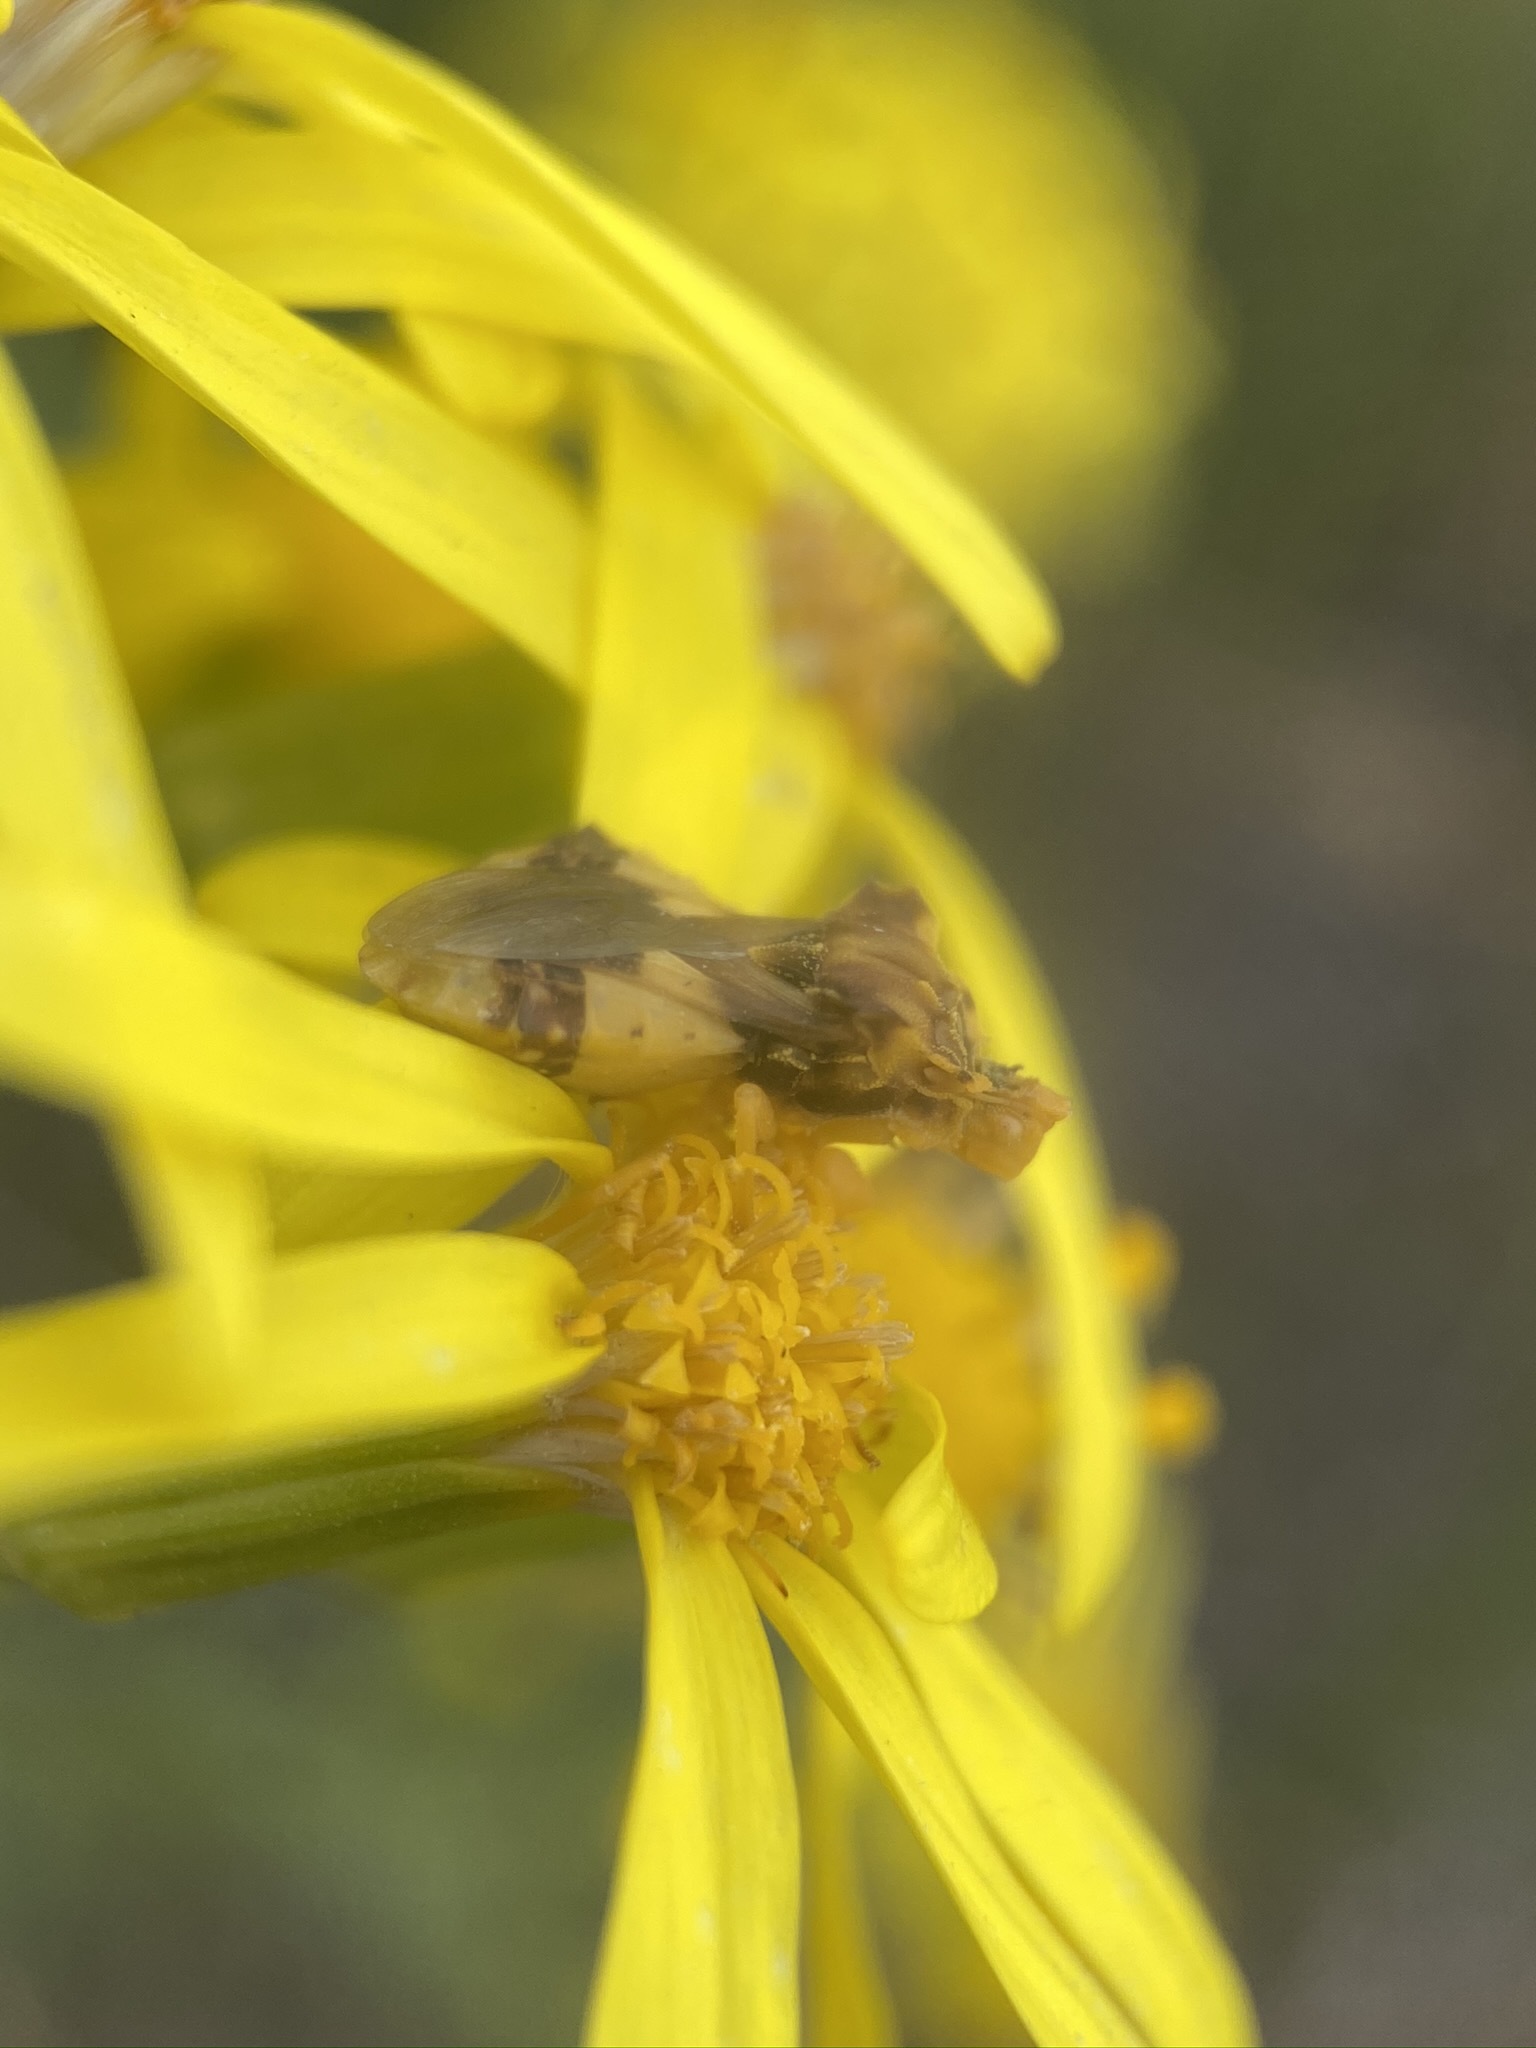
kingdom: Animalia
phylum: Arthropoda
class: Insecta
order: Hemiptera
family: Reduviidae
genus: Phymata
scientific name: Phymata americana
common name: Jagged ambush bug
